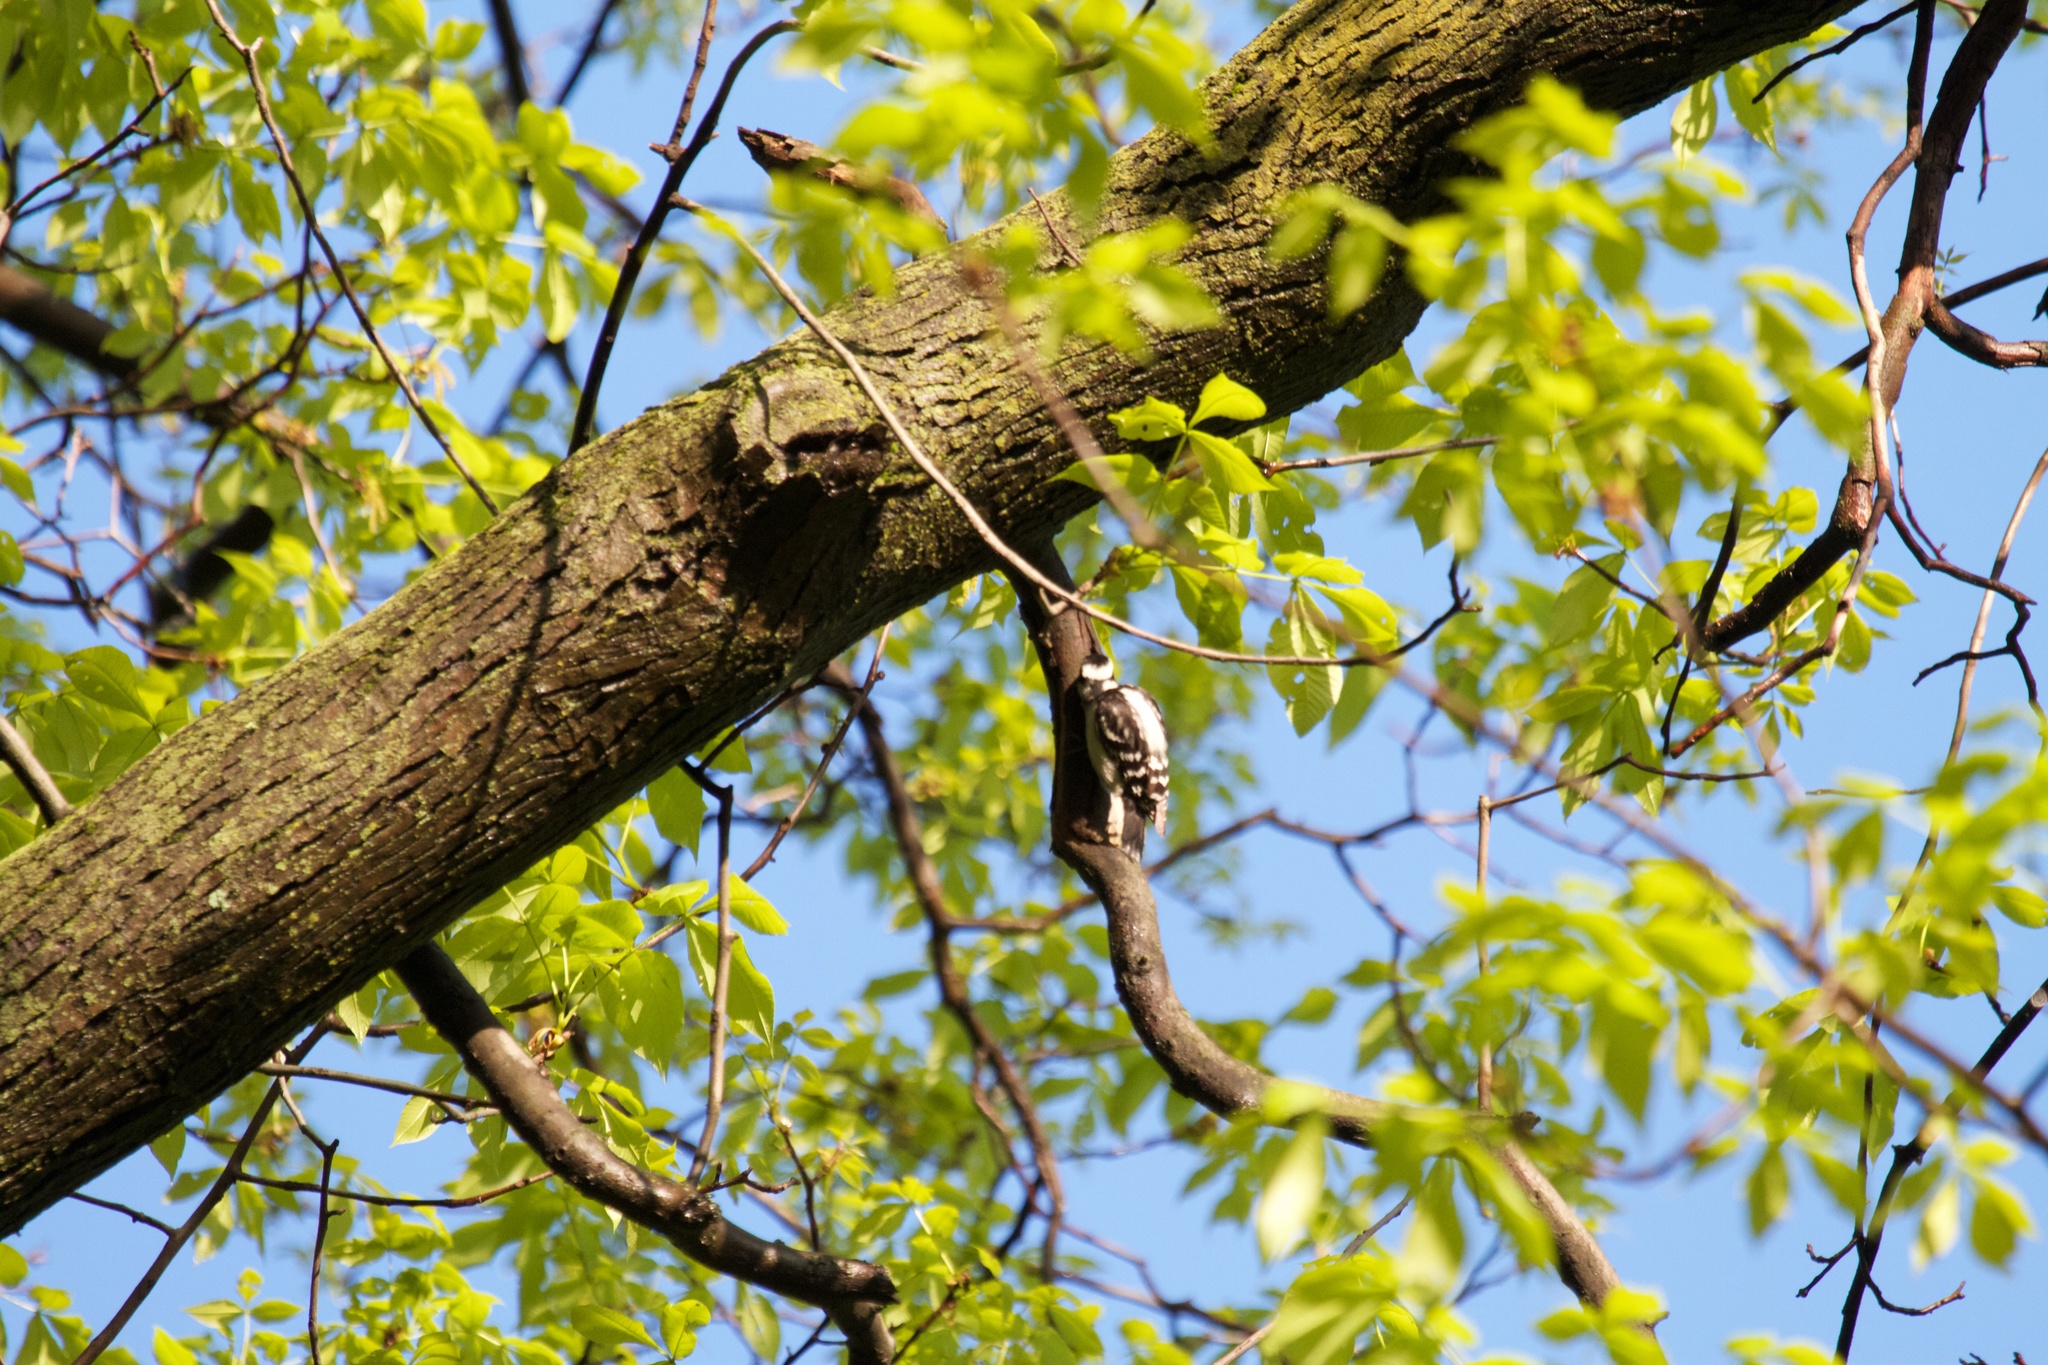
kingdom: Animalia
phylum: Chordata
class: Aves
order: Piciformes
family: Picidae
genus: Dryobates
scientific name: Dryobates pubescens
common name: Downy woodpecker
